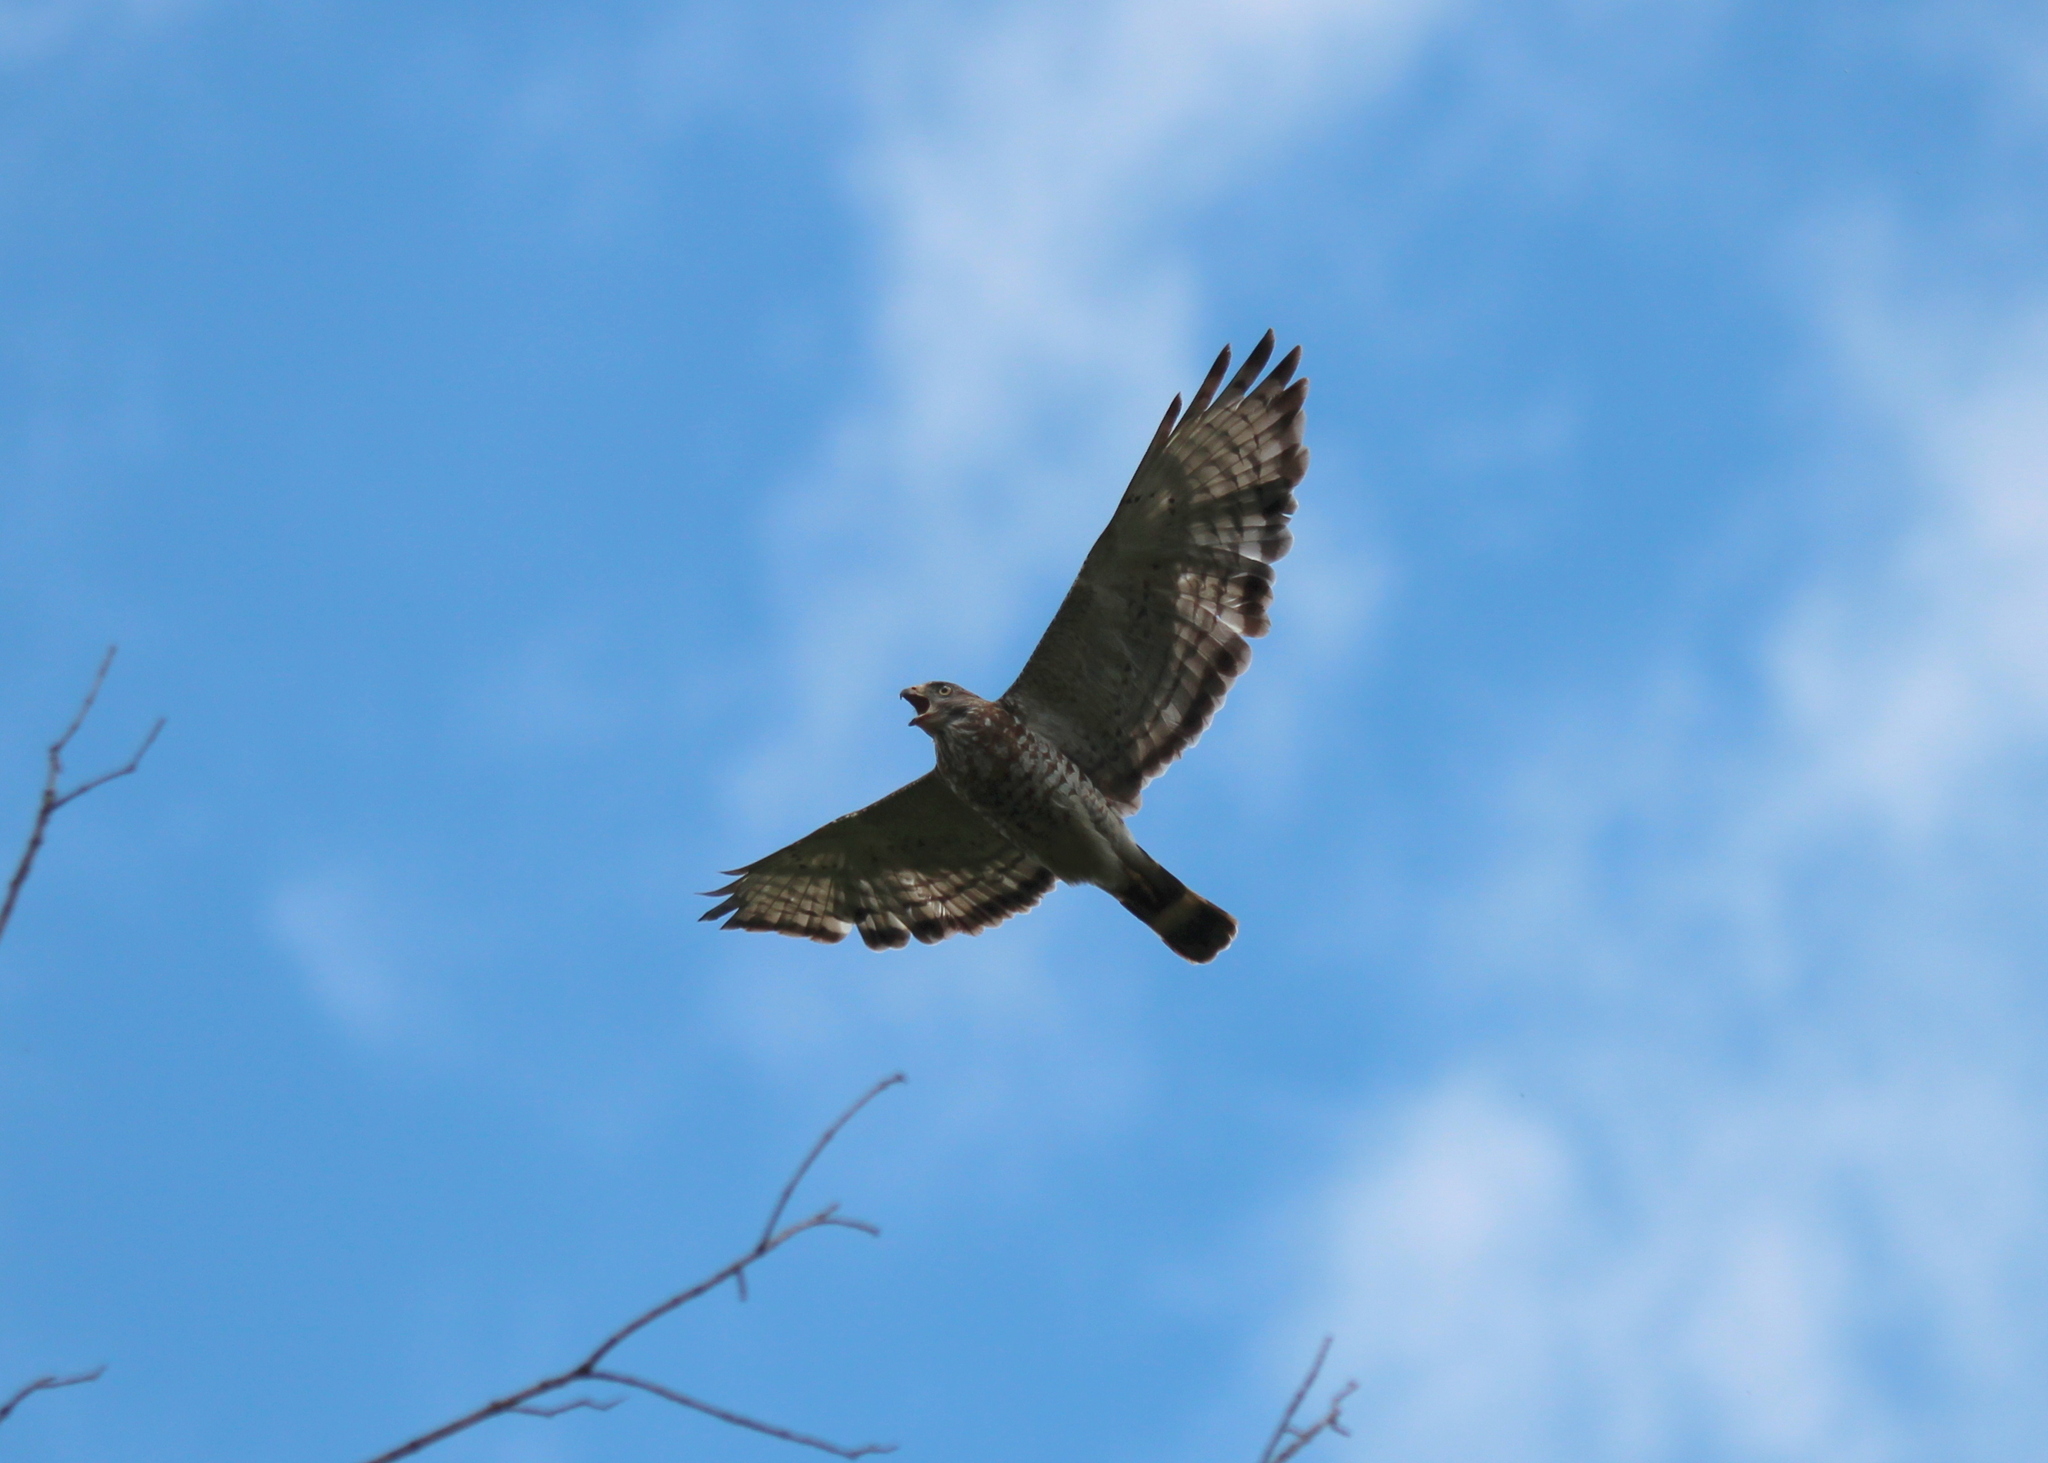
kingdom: Animalia
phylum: Chordata
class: Aves
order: Accipitriformes
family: Accipitridae
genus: Buteo
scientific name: Buteo platypterus
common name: Broad-winged hawk
